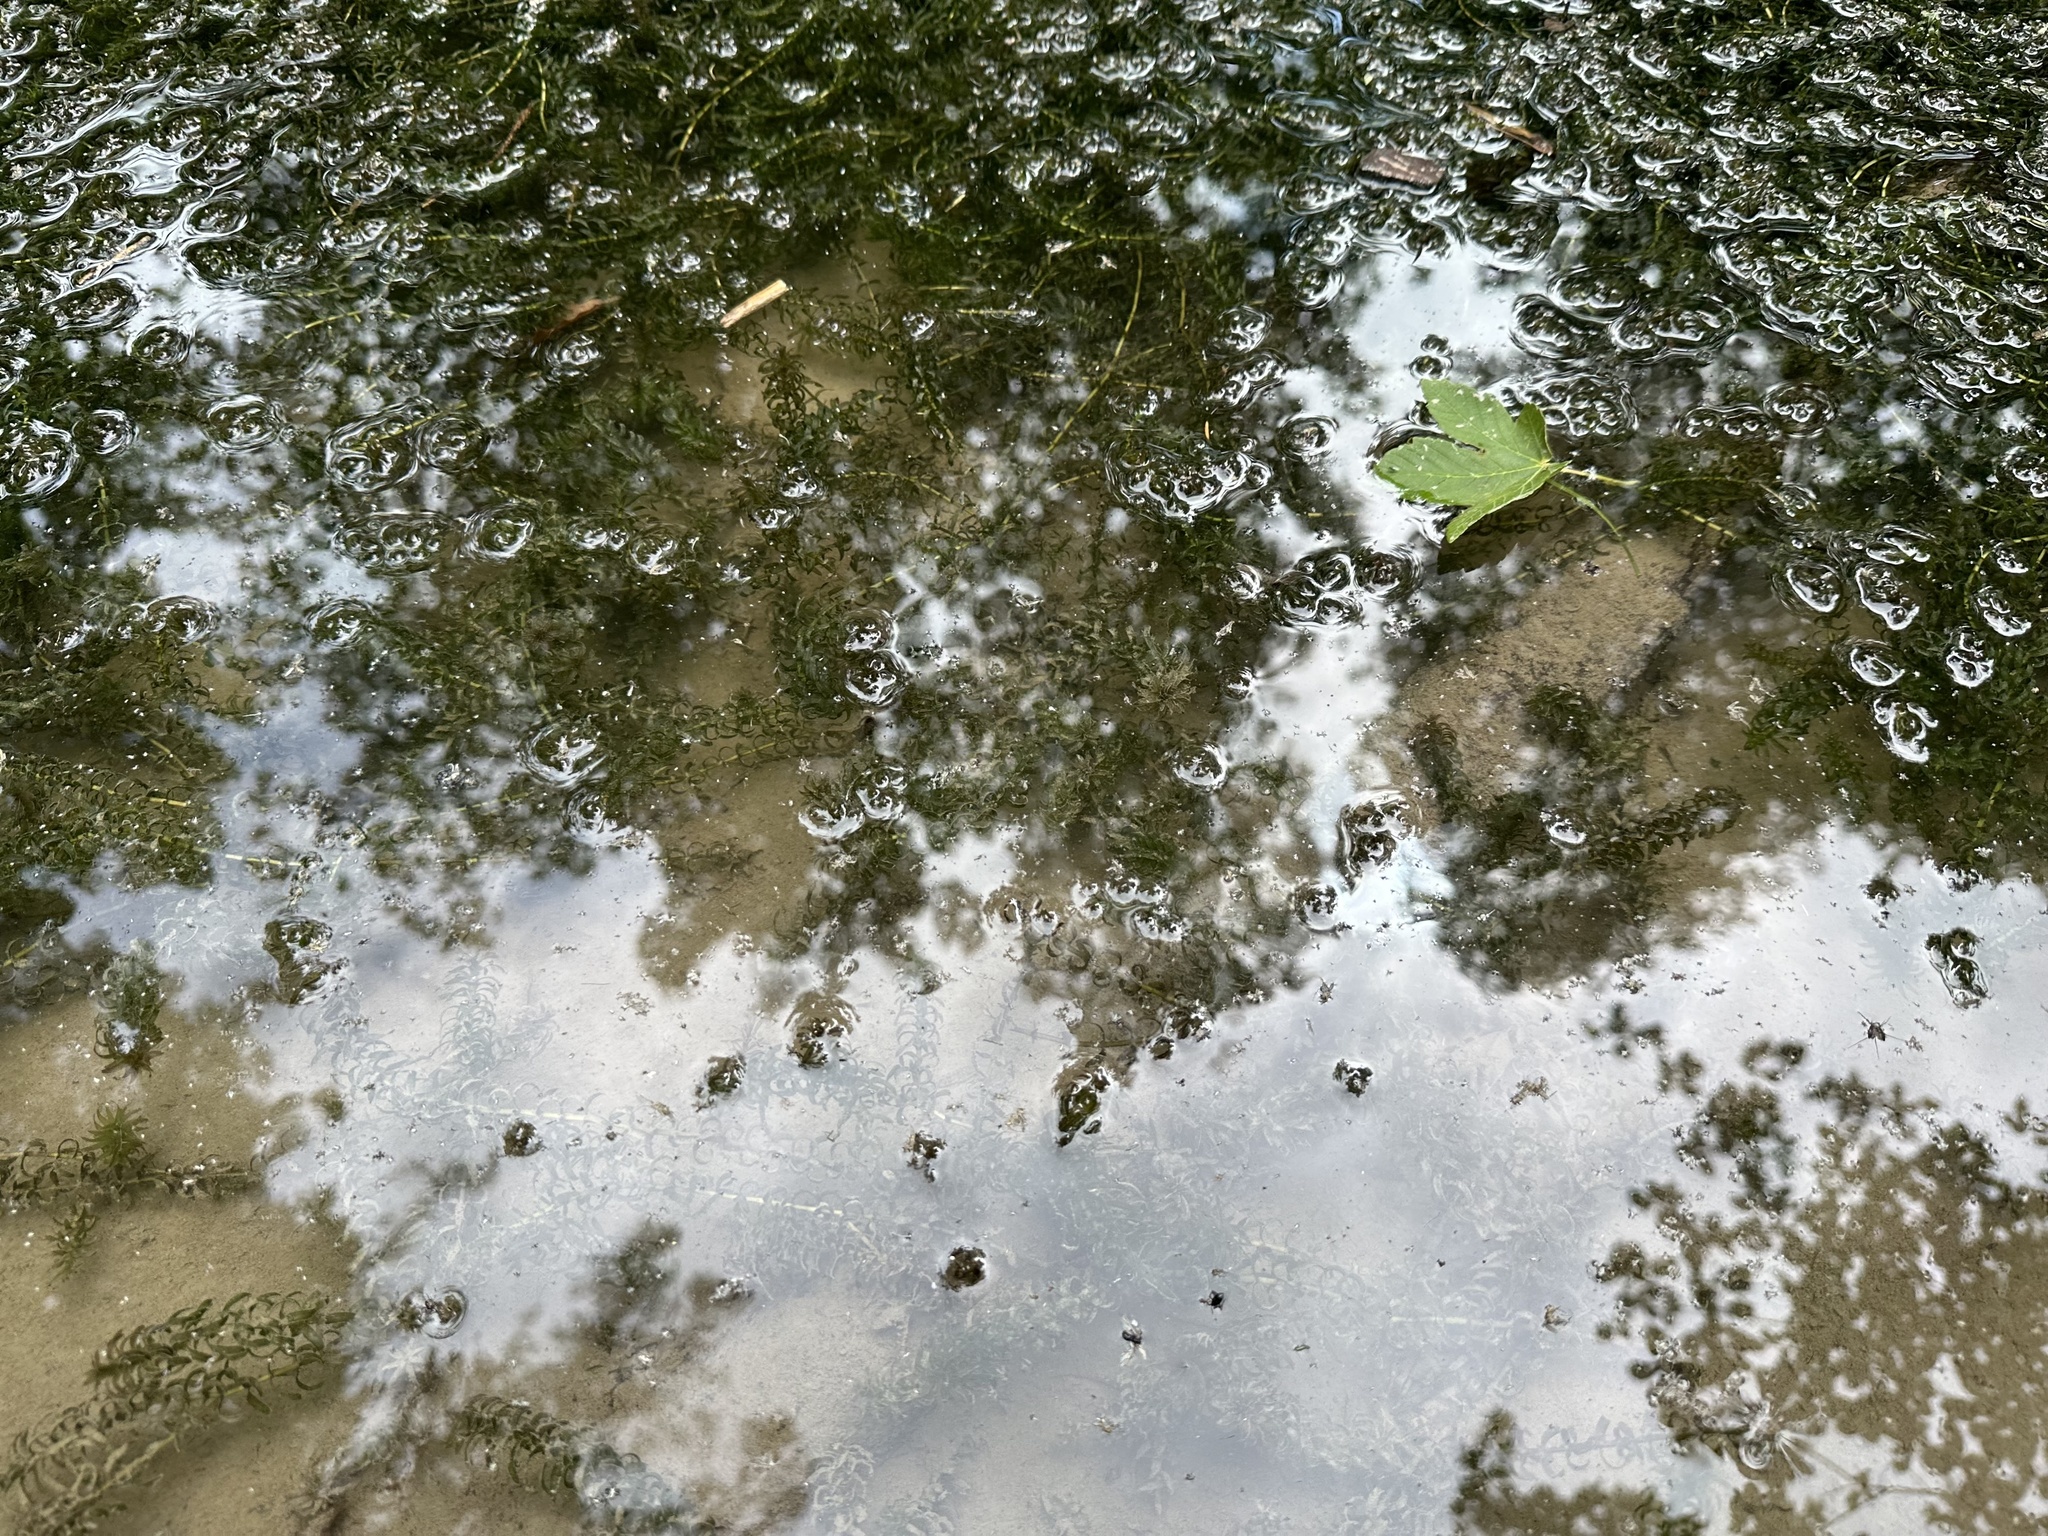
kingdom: Plantae
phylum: Tracheophyta
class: Liliopsida
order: Alismatales
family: Hydrocharitaceae
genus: Elodea
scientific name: Elodea canadensis
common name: Canadian waterweed
